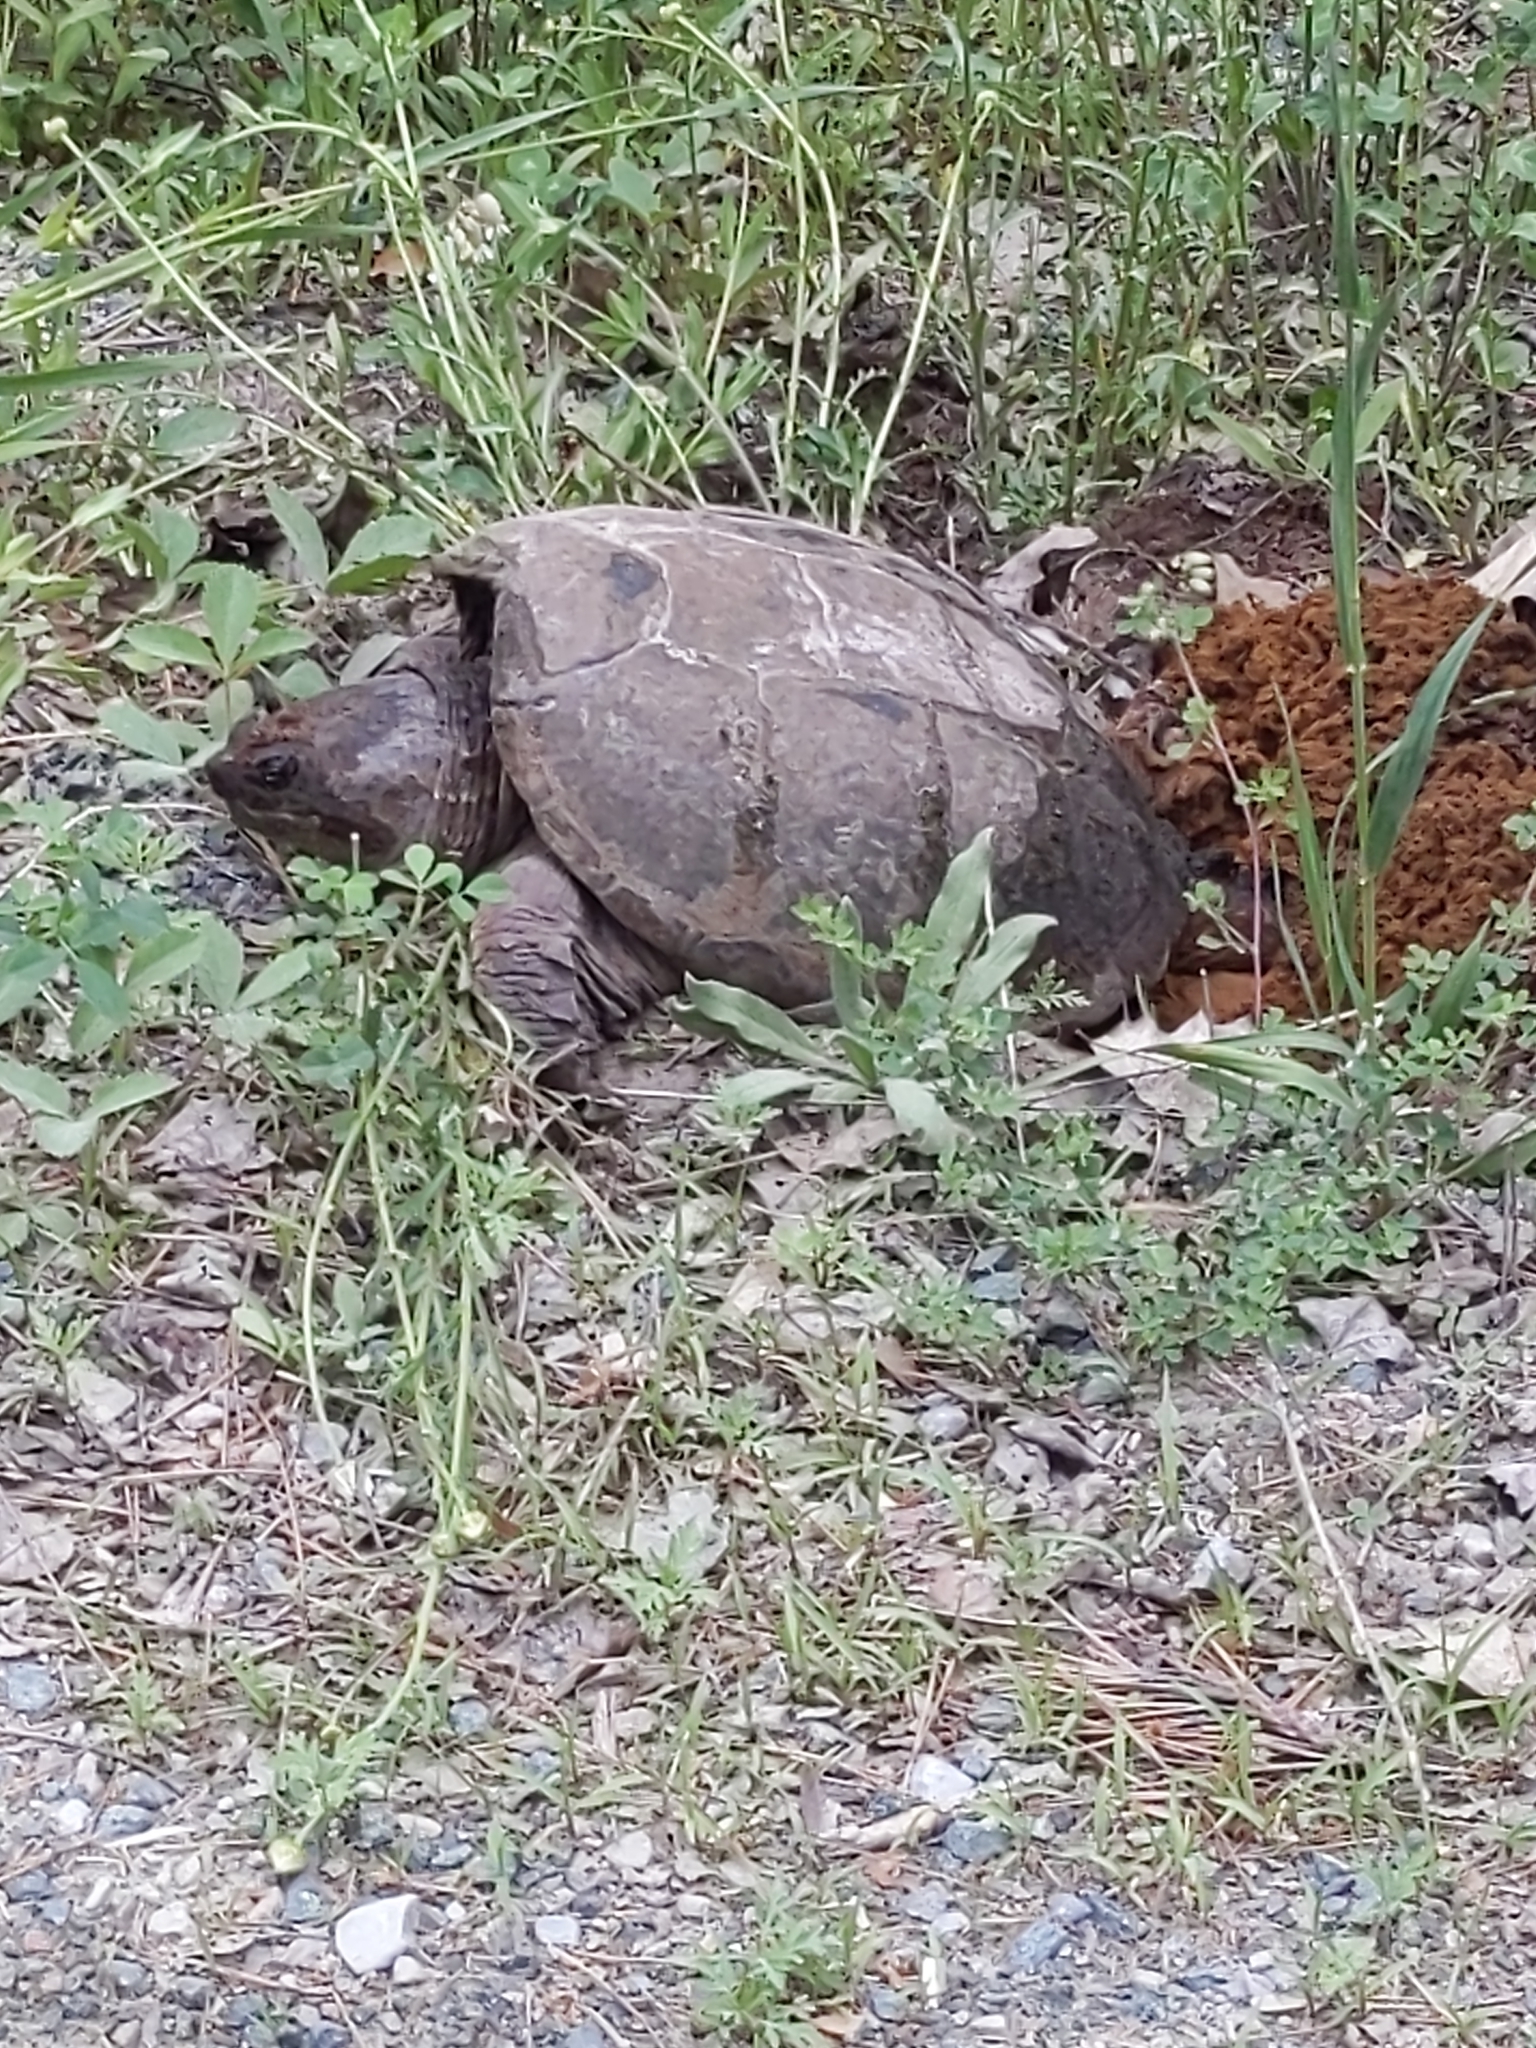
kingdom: Animalia
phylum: Chordata
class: Testudines
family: Chelydridae
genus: Chelydra
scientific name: Chelydra serpentina
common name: Common snapping turtle
